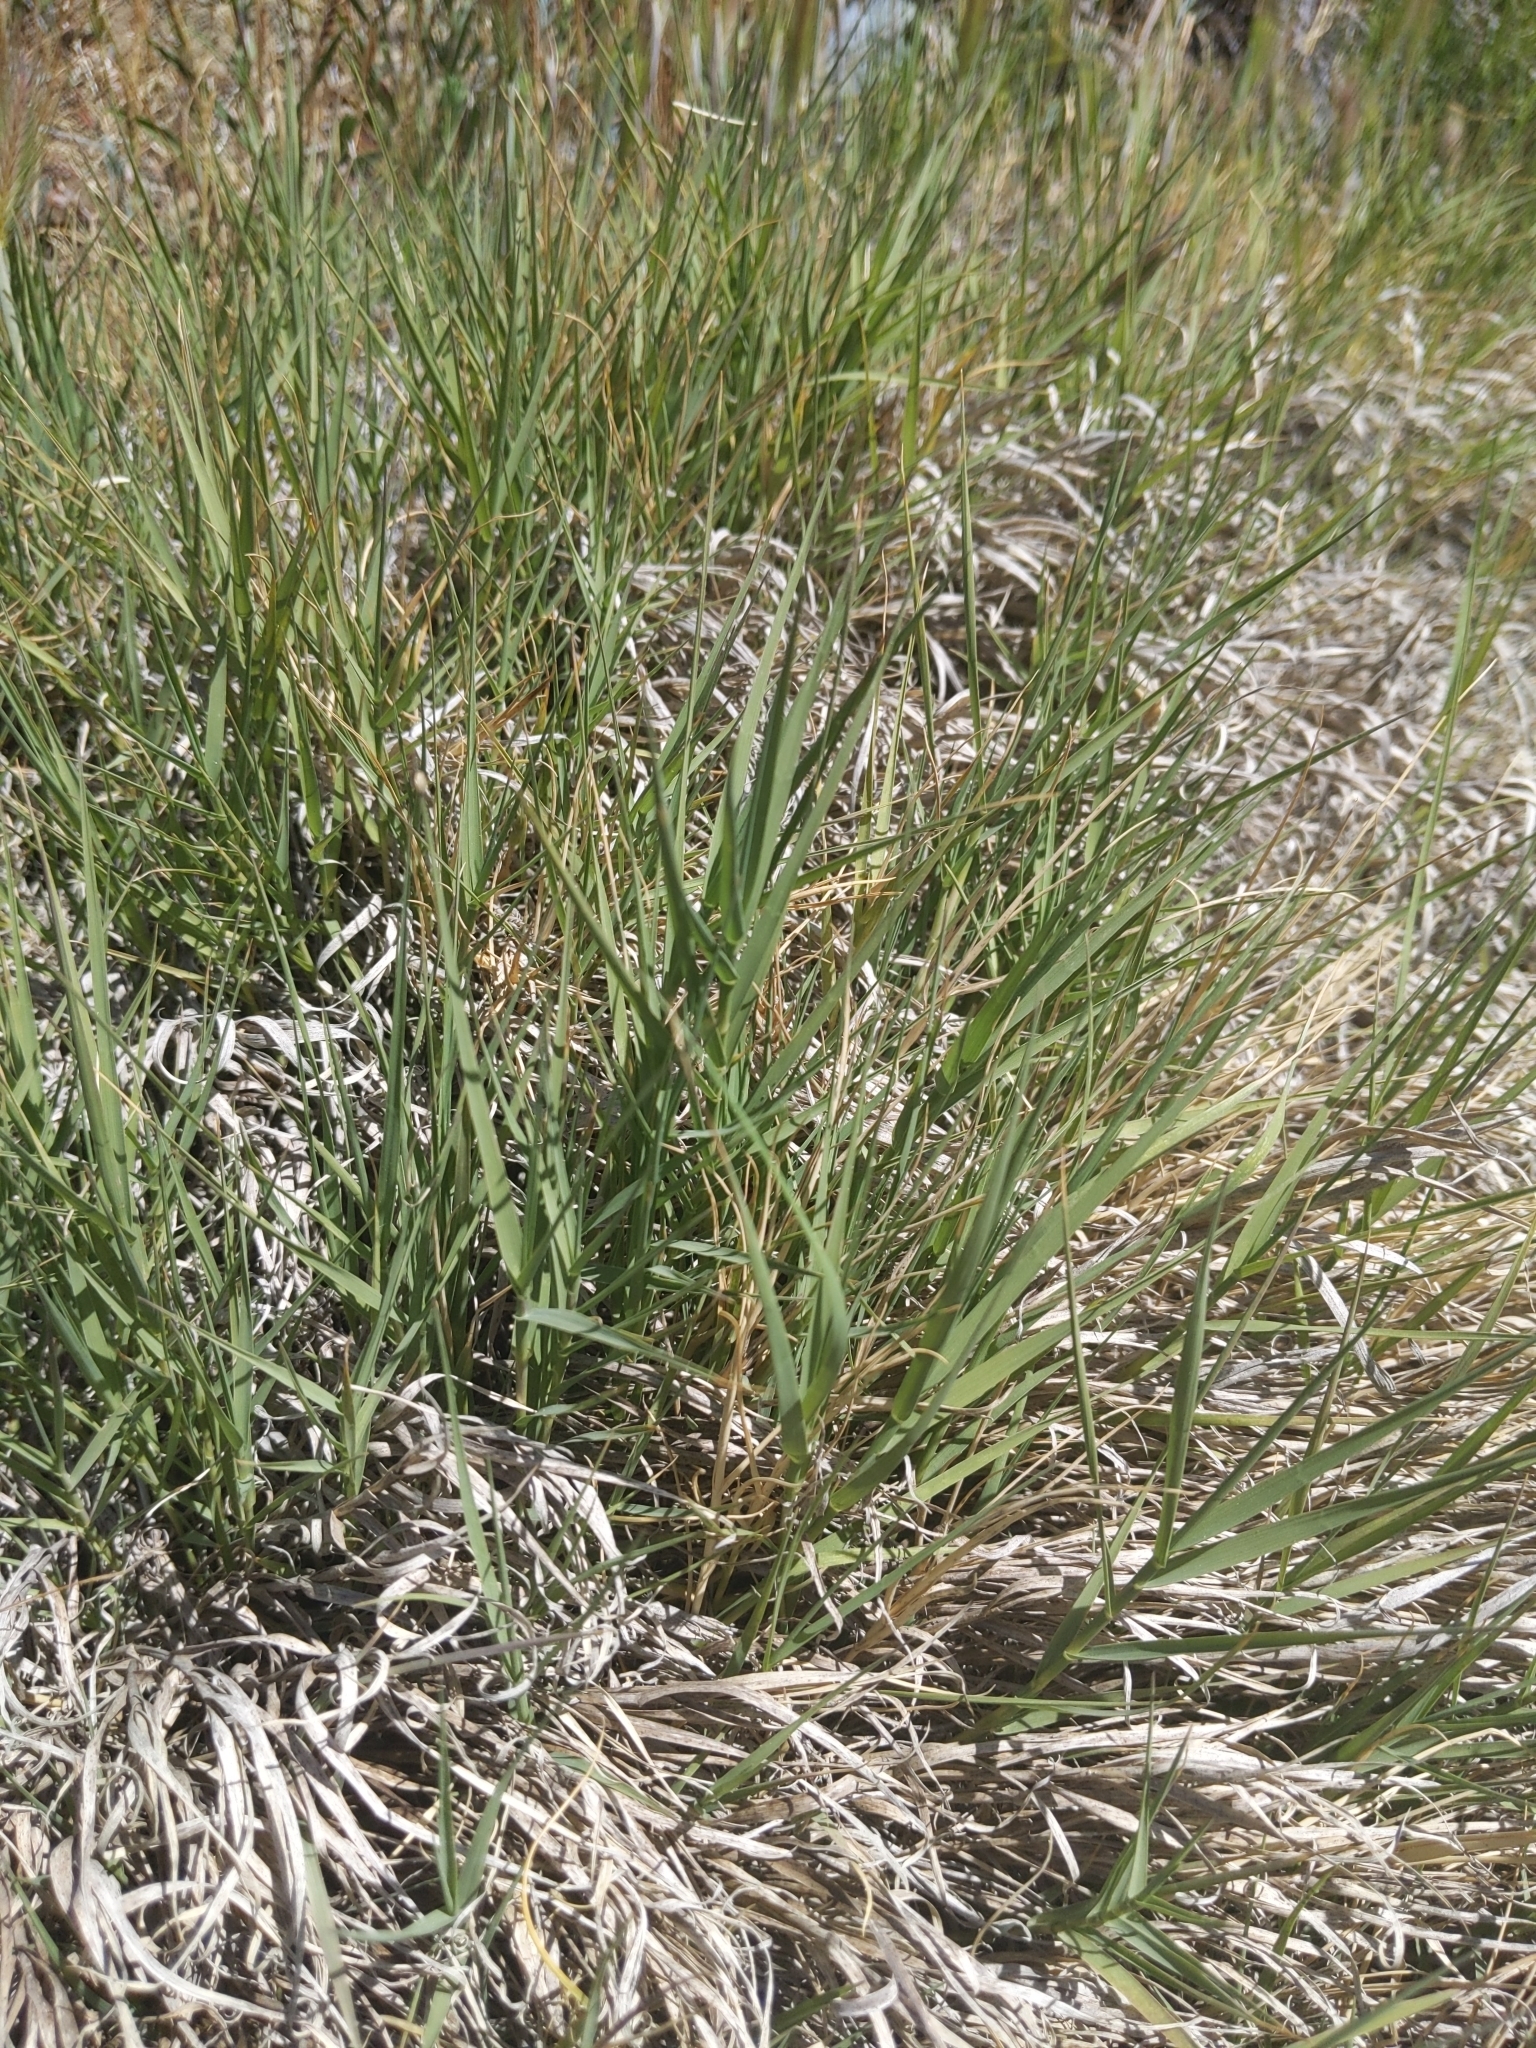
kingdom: Plantae
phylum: Tracheophyta
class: Liliopsida
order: Poales
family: Poaceae
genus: Distichlis
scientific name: Distichlis spicata
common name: Saltgrass
